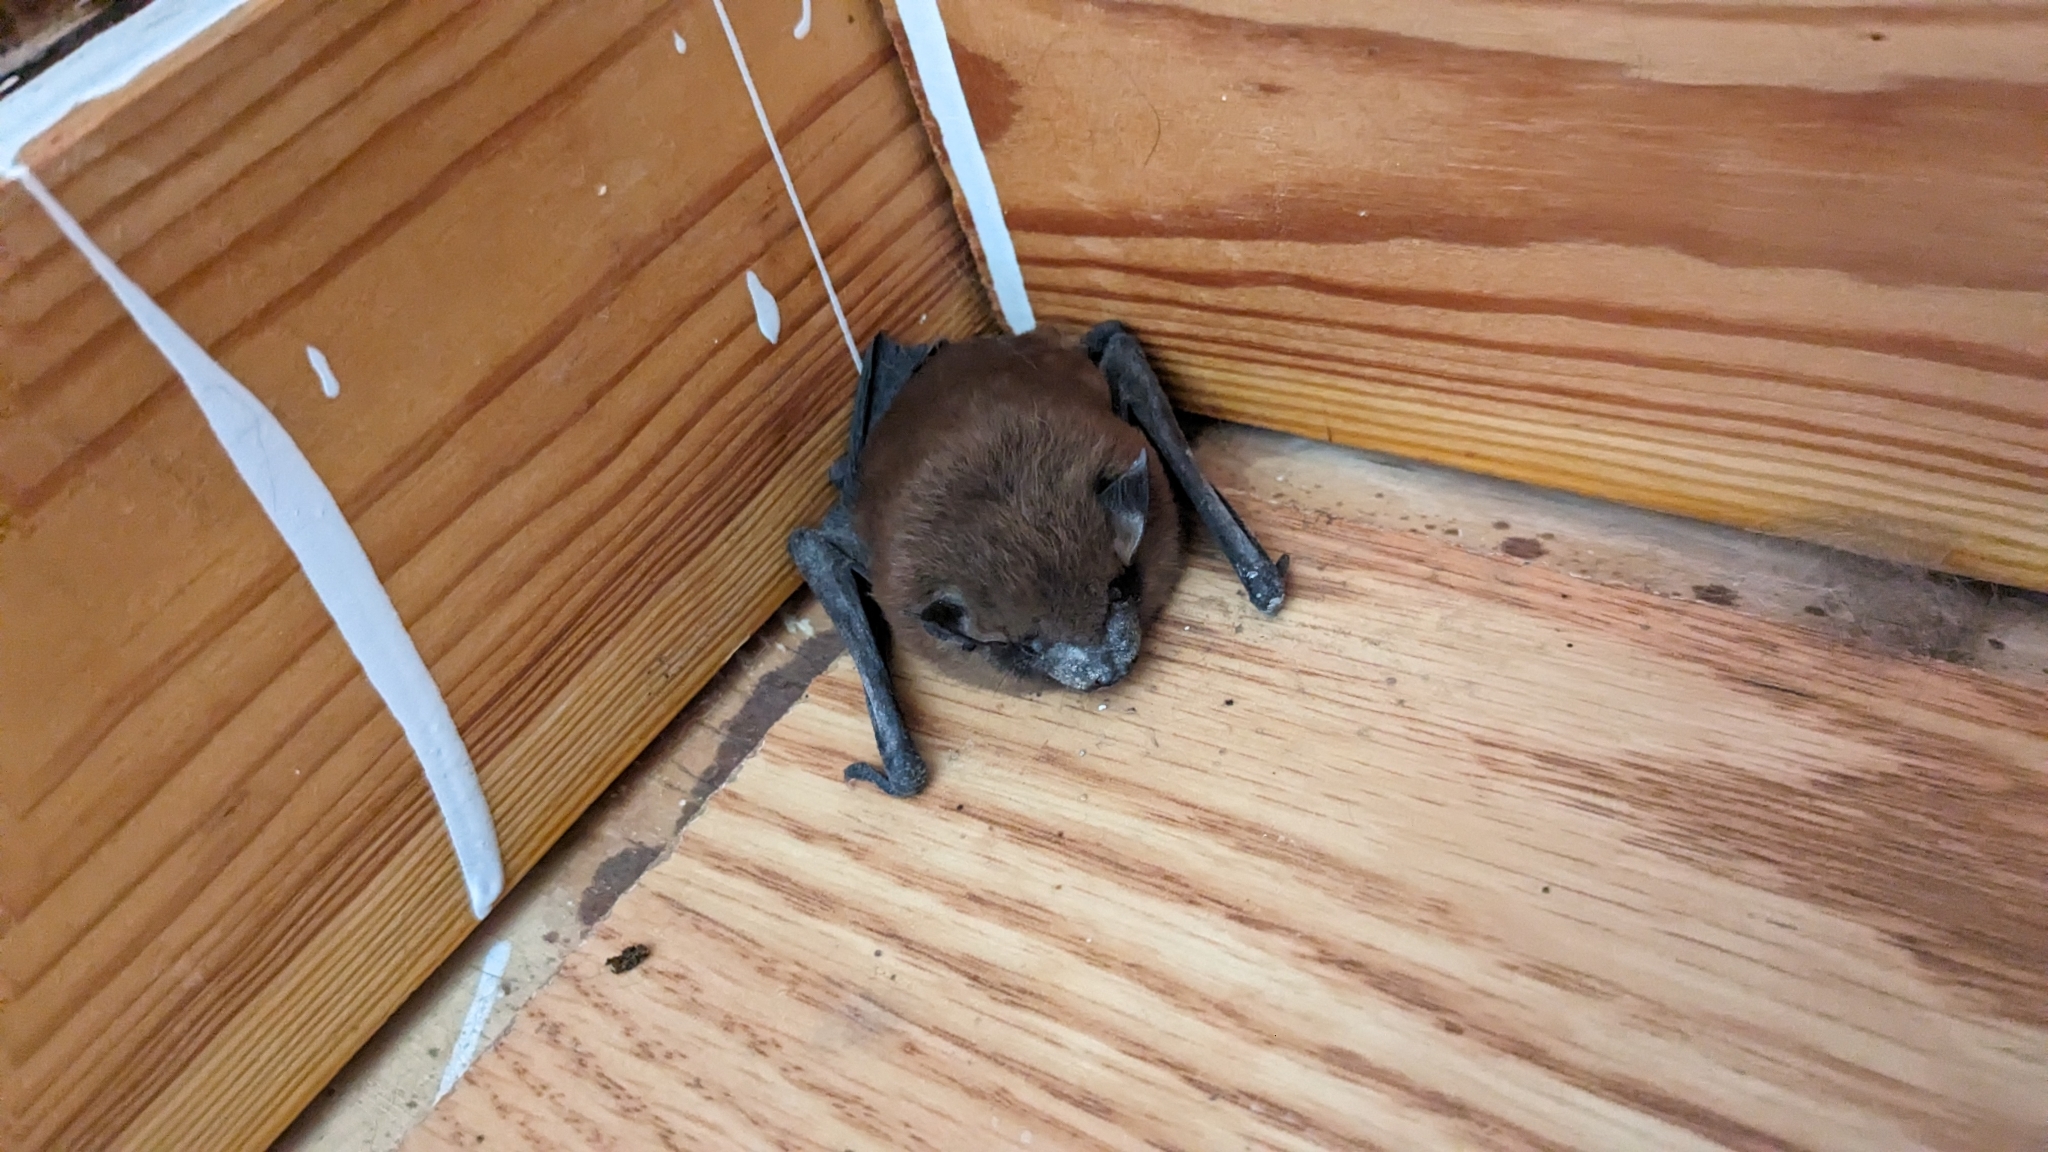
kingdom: Animalia
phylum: Chordata
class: Mammalia
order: Chiroptera
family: Vespertilionidae
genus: Eptesicus
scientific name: Eptesicus fuscus
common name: Big brown bat
